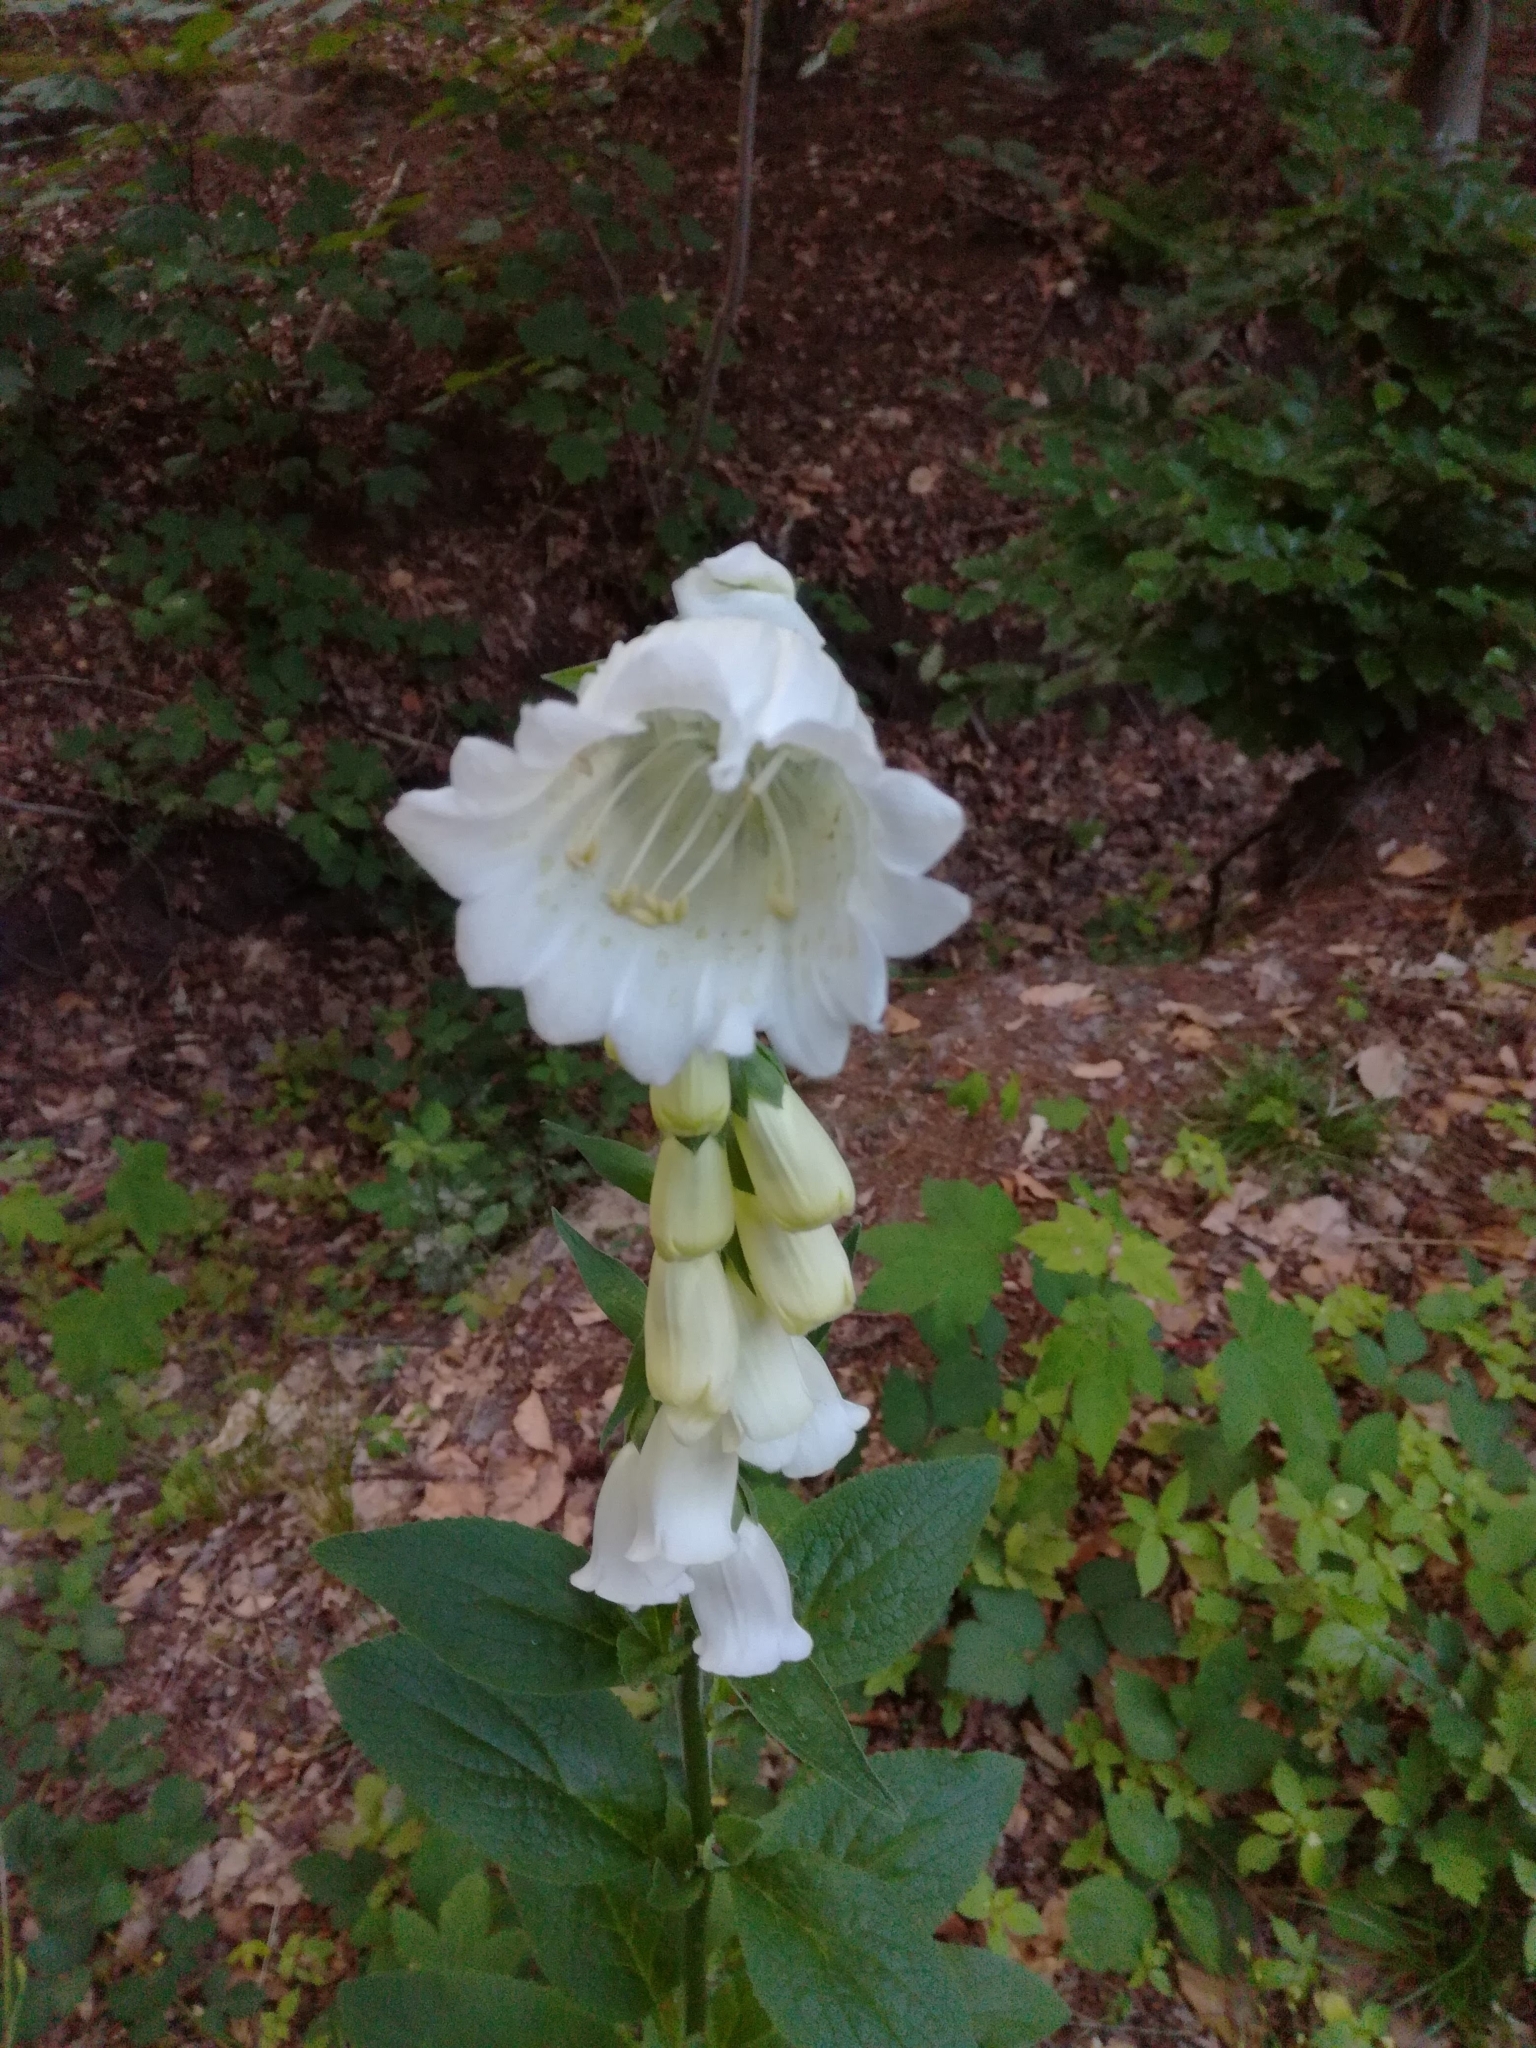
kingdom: Plantae
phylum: Tracheophyta
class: Magnoliopsida
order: Lamiales
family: Plantaginaceae
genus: Digitalis
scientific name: Digitalis purpurea
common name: Foxglove
